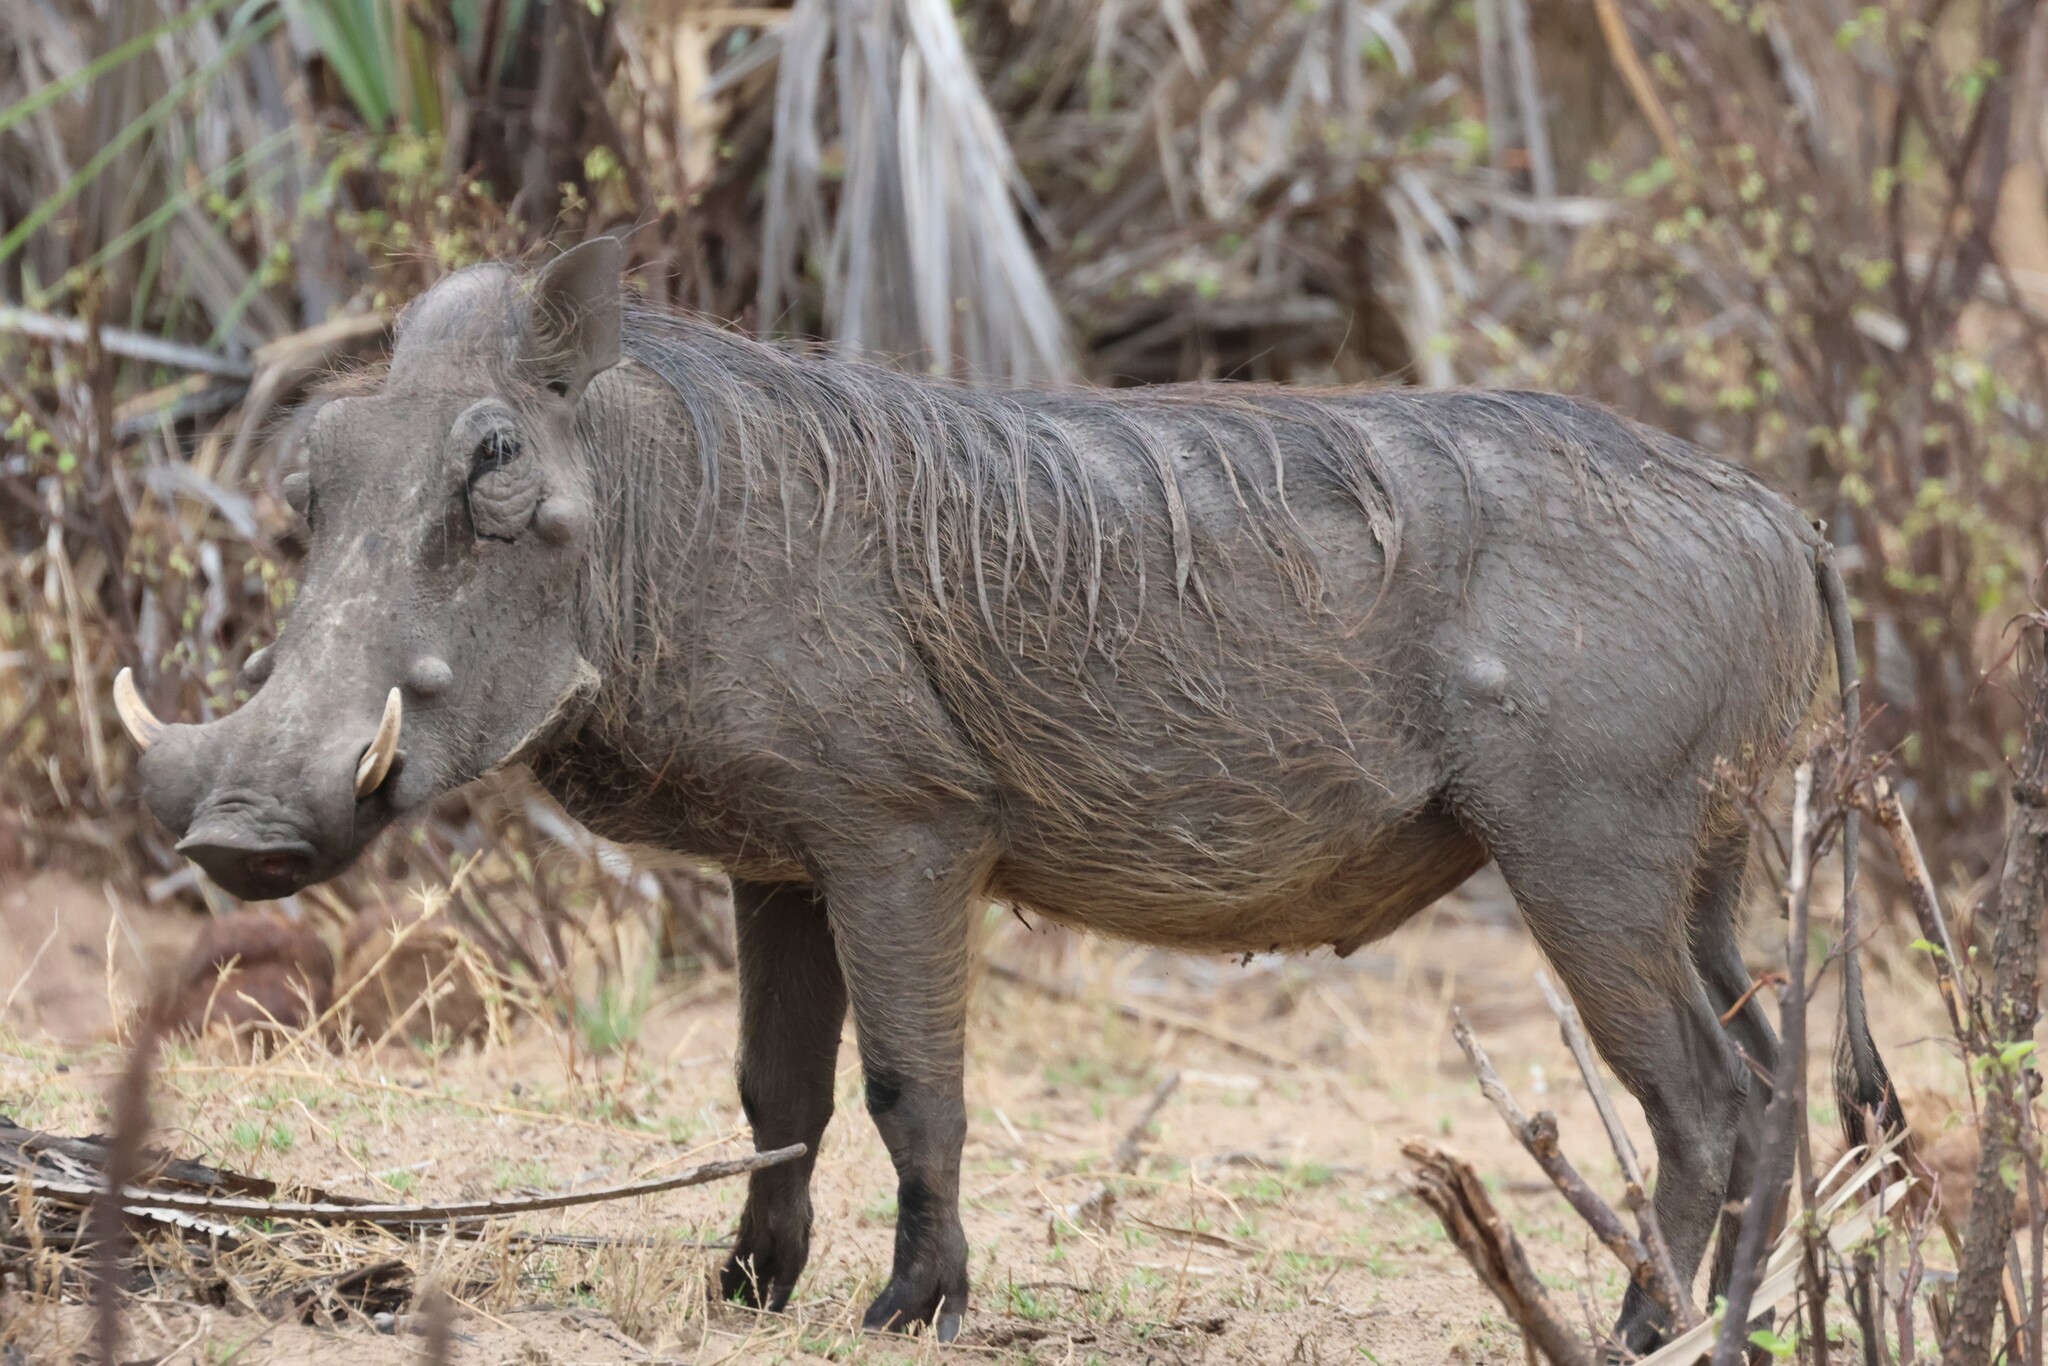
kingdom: Animalia
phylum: Chordata
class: Mammalia
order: Artiodactyla
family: Suidae
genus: Phacochoerus
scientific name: Phacochoerus africanus
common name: Common warthog
